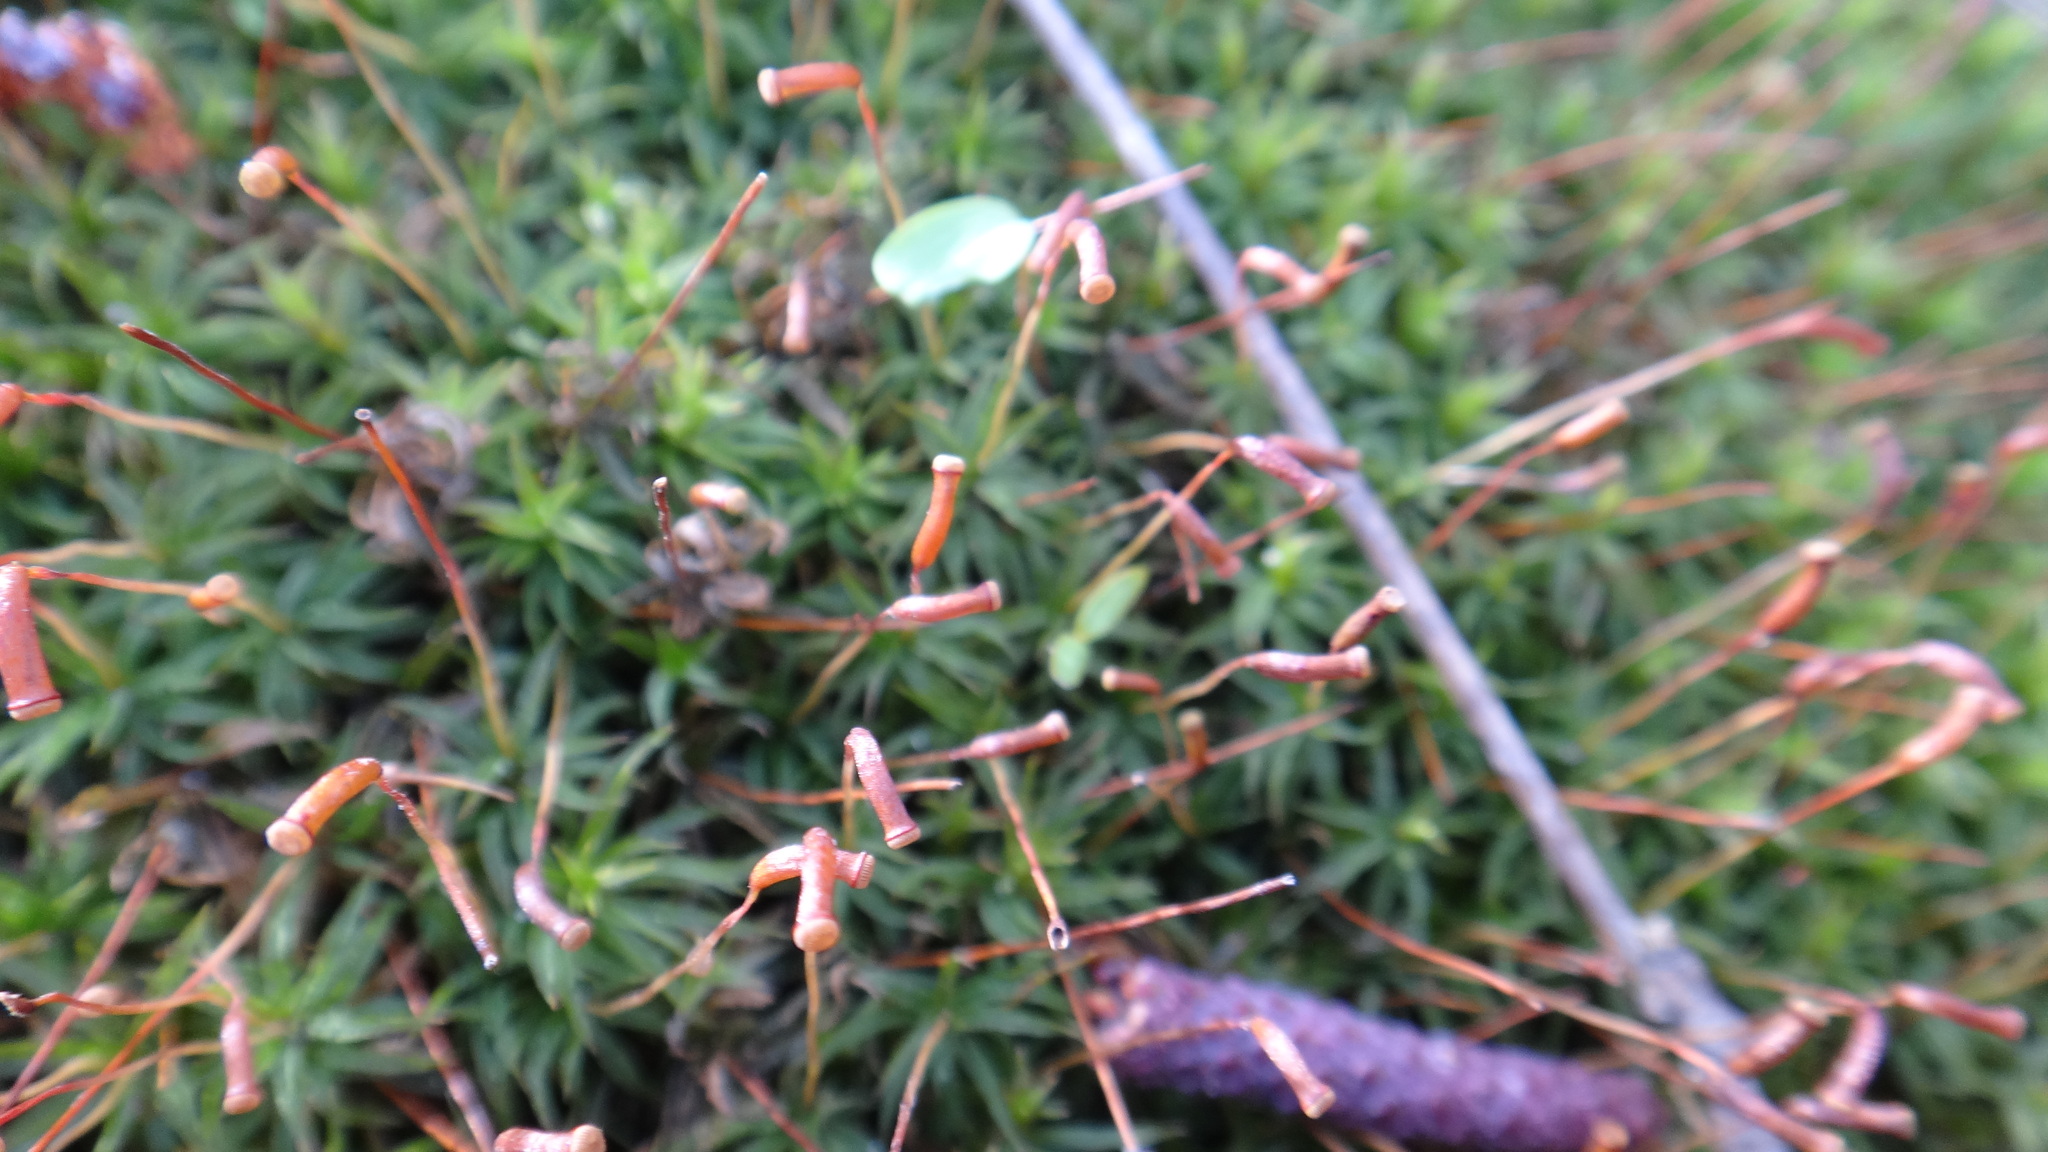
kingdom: Plantae
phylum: Bryophyta
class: Polytrichopsida
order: Polytrichales
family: Polytrichaceae
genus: Atrichum
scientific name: Atrichum undulatum
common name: Common smoothcap
